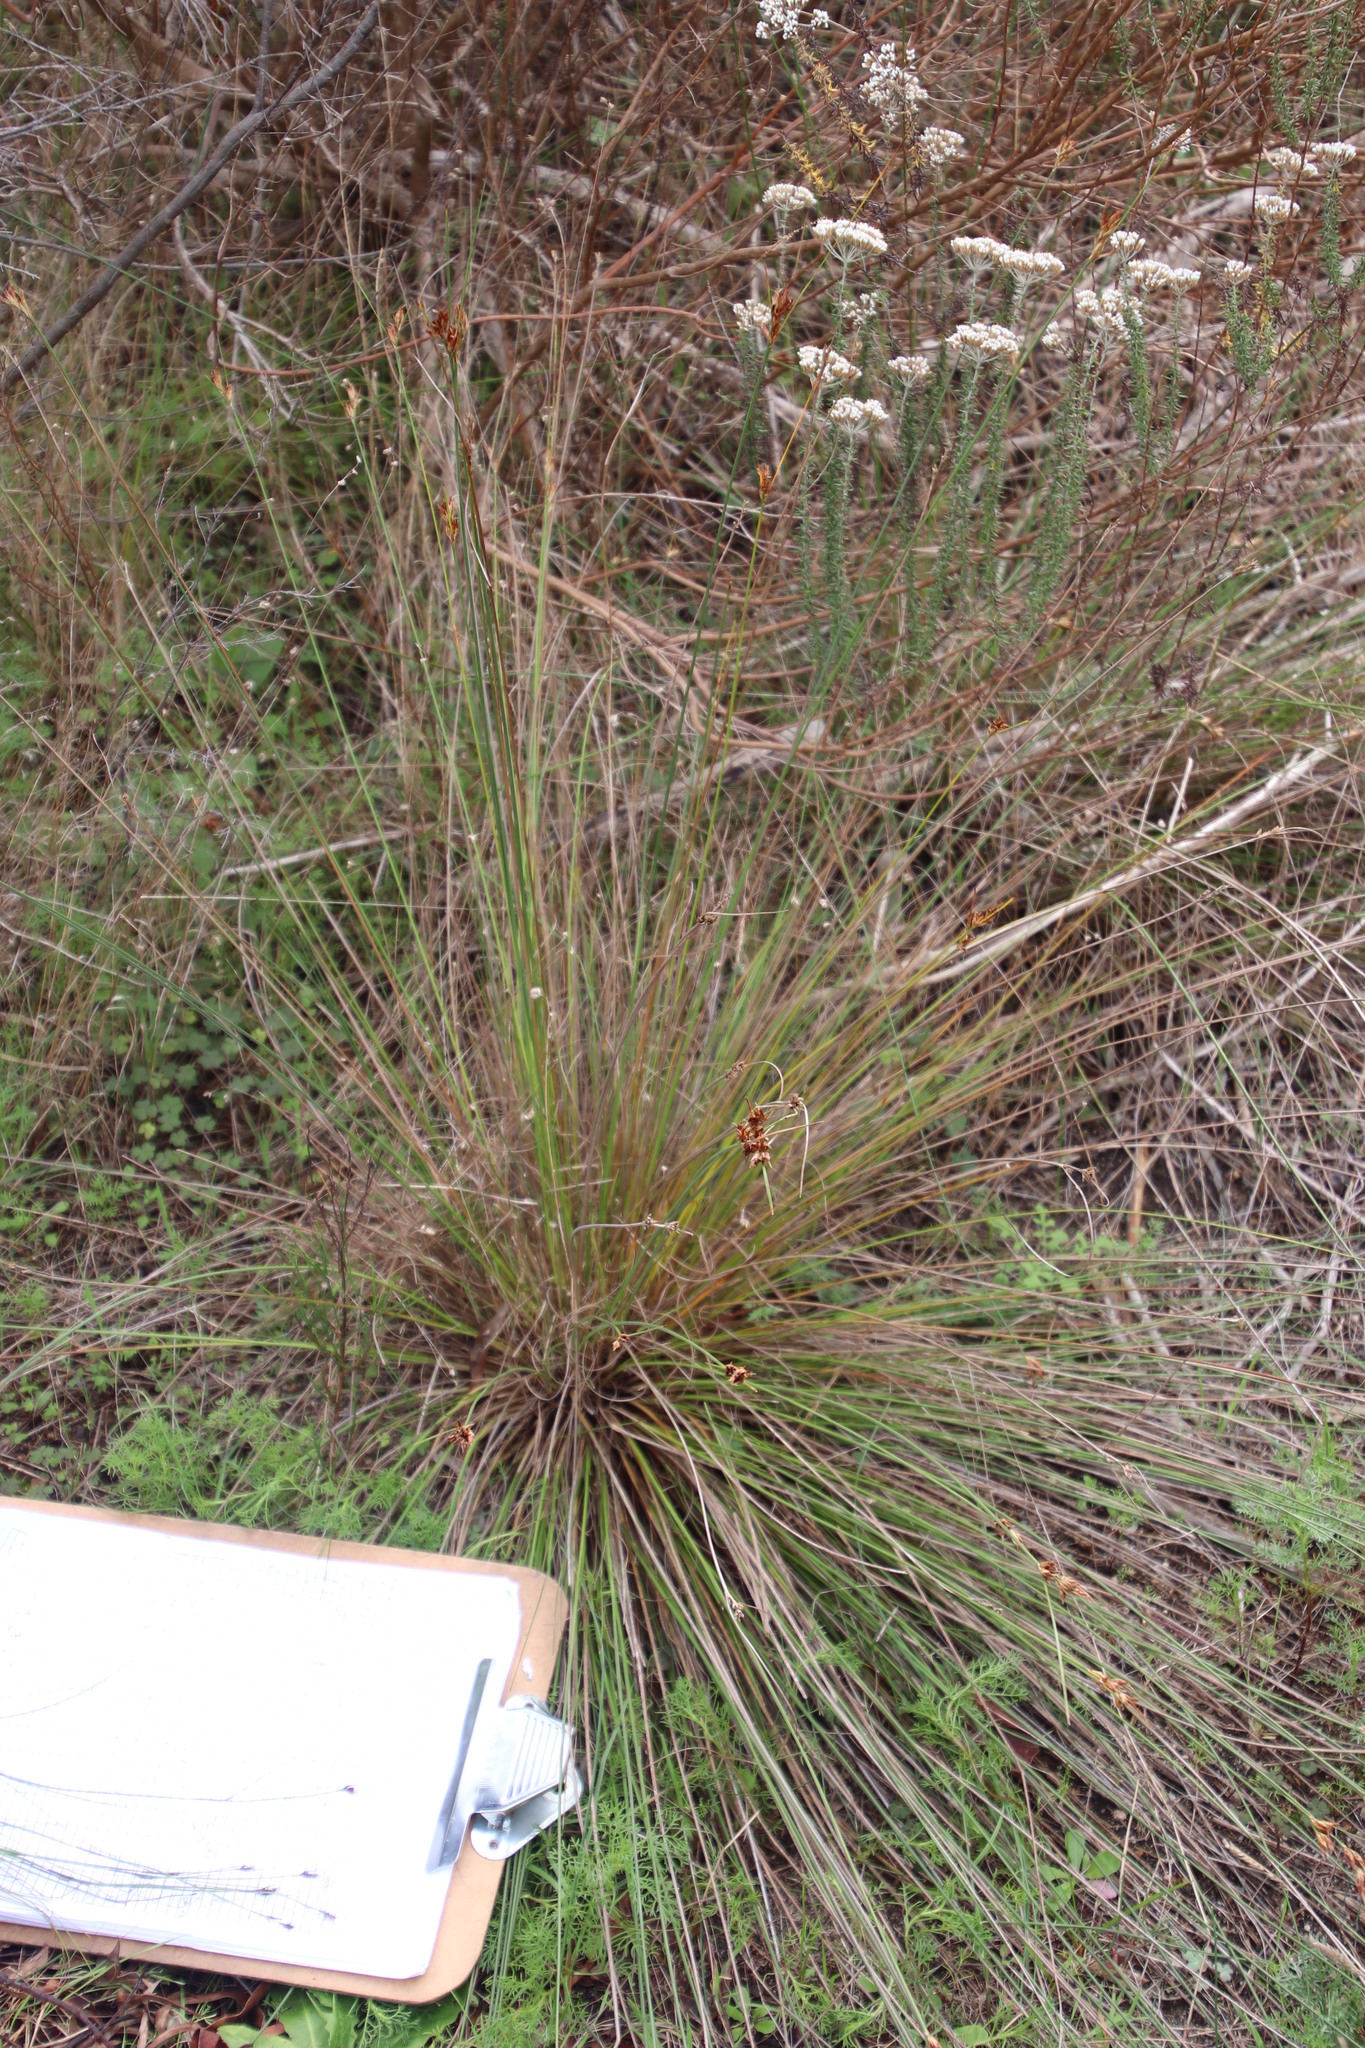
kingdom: Plantae
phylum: Tracheophyta
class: Liliopsida
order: Poales
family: Cyperaceae
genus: Schoenus
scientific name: Schoenus compar
